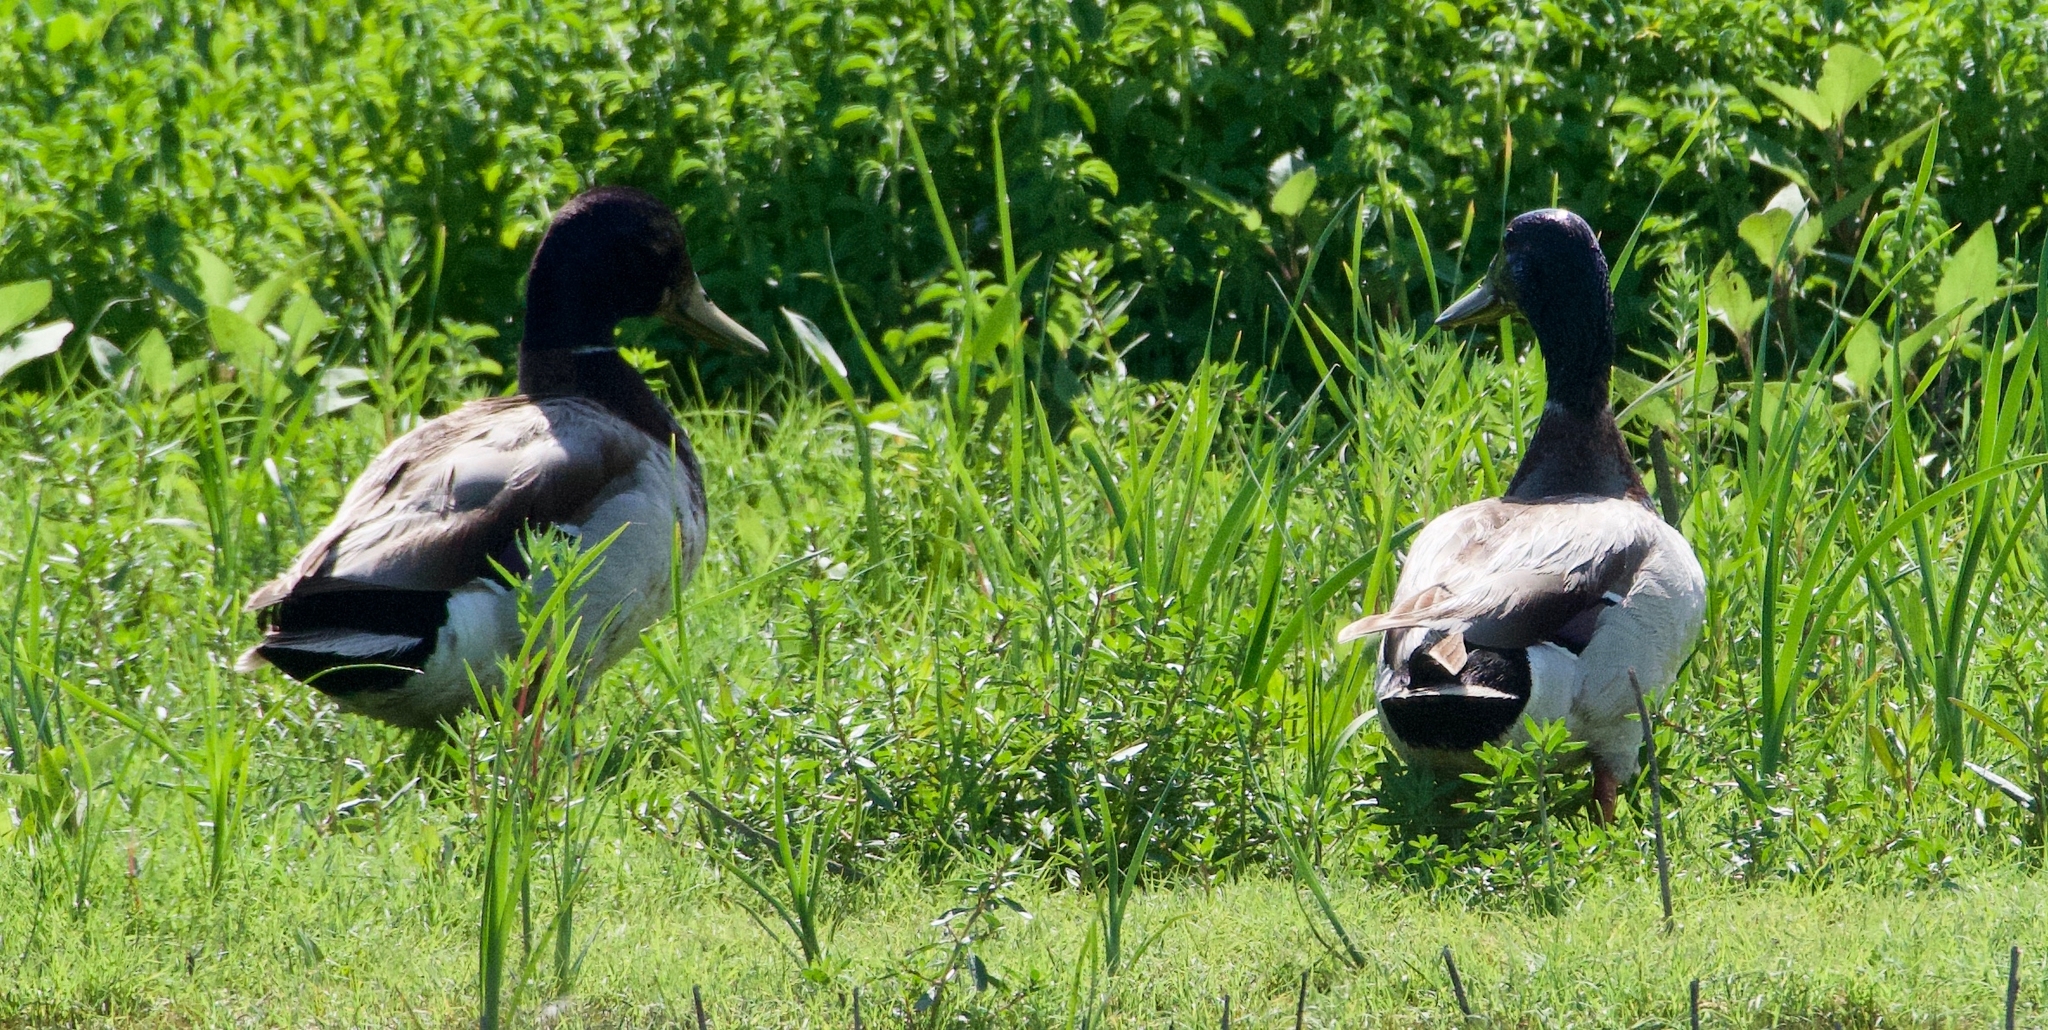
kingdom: Animalia
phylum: Chordata
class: Aves
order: Anseriformes
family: Anatidae
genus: Anas
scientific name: Anas platyrhynchos
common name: Mallard
